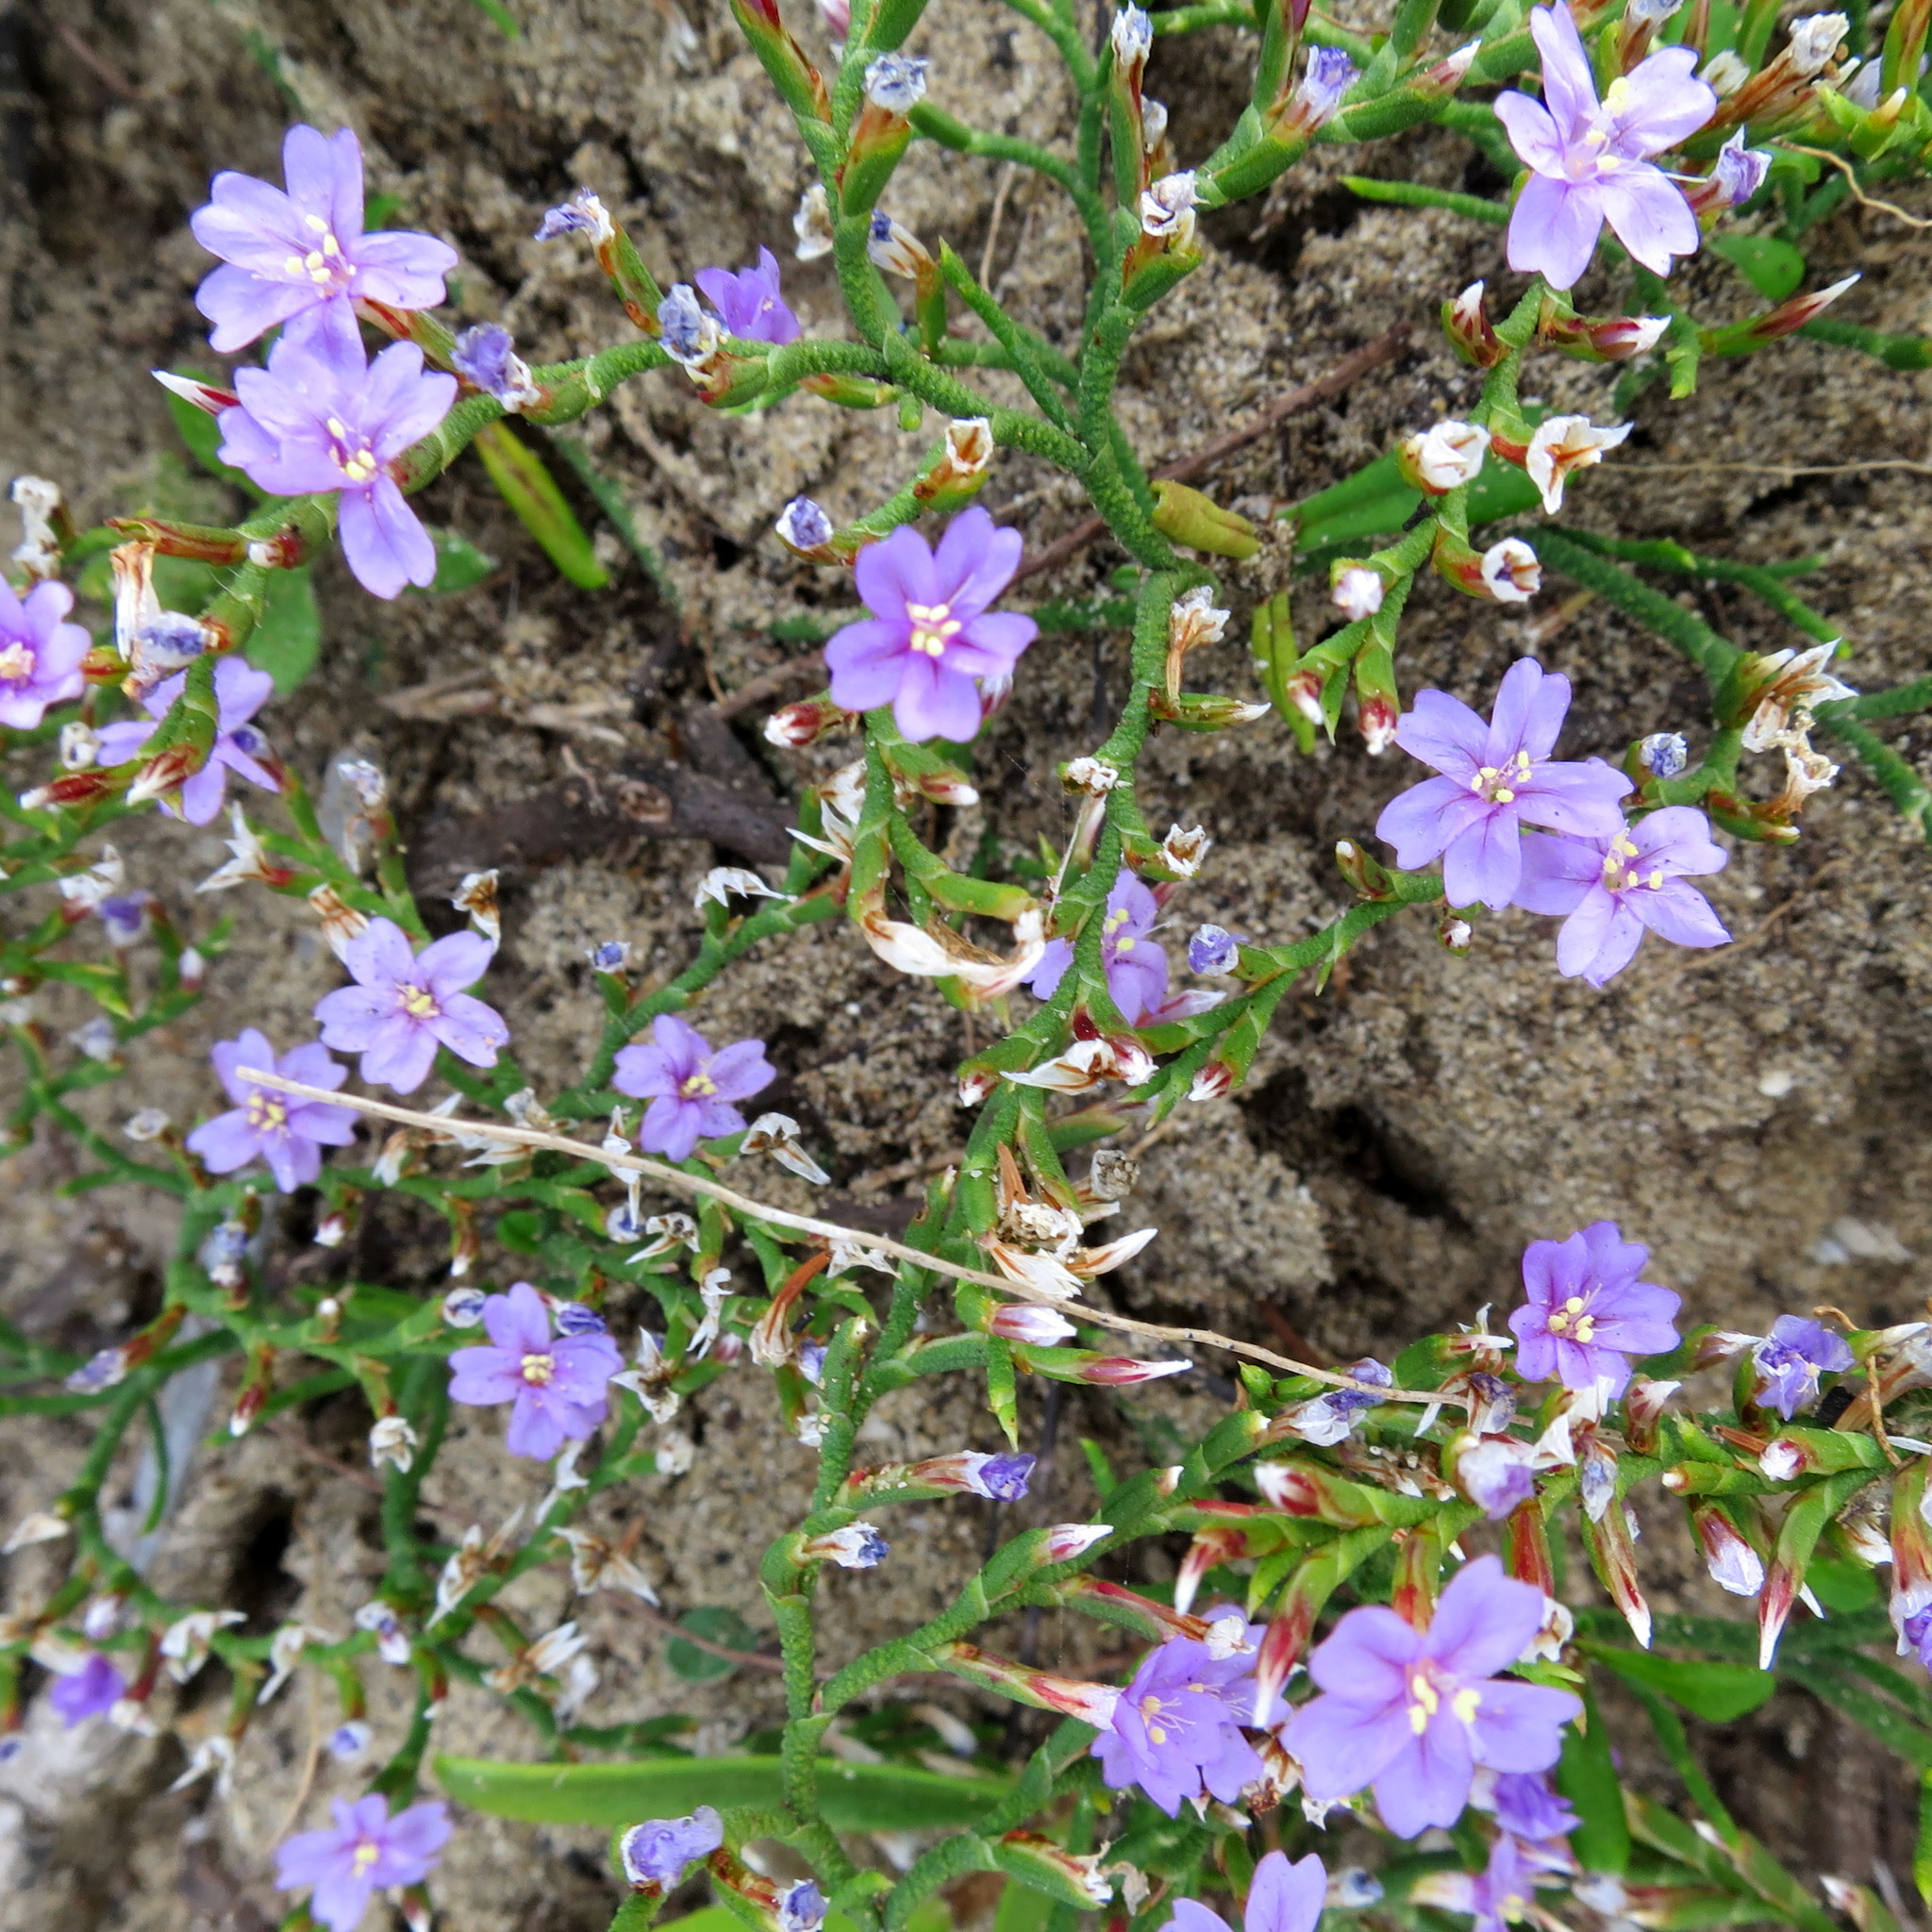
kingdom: Plantae
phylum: Tracheophyta
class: Magnoliopsida
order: Caryophyllales
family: Plumbaginaceae
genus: Limonium
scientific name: Limonium scabrum
